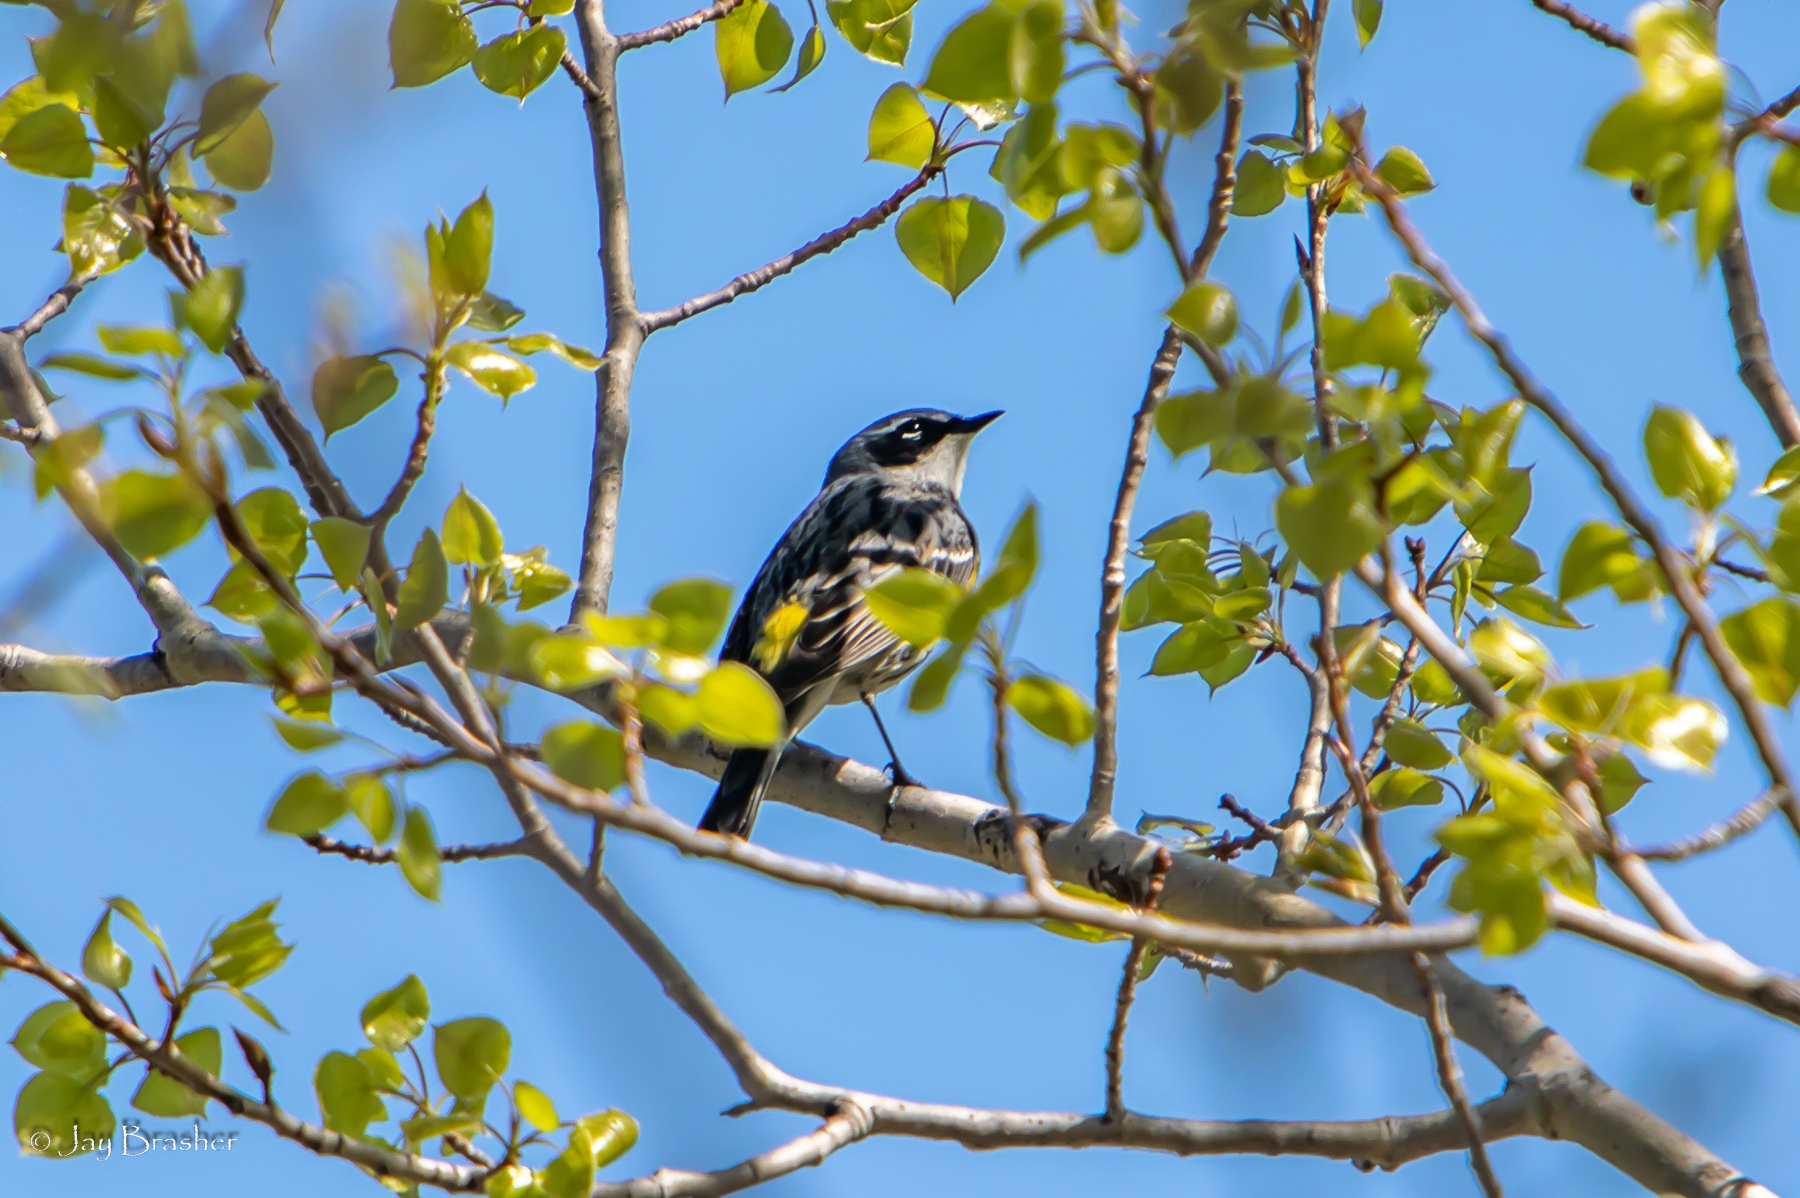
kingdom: Animalia
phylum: Chordata
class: Aves
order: Passeriformes
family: Parulidae
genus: Setophaga
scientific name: Setophaga coronata
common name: Myrtle warbler
